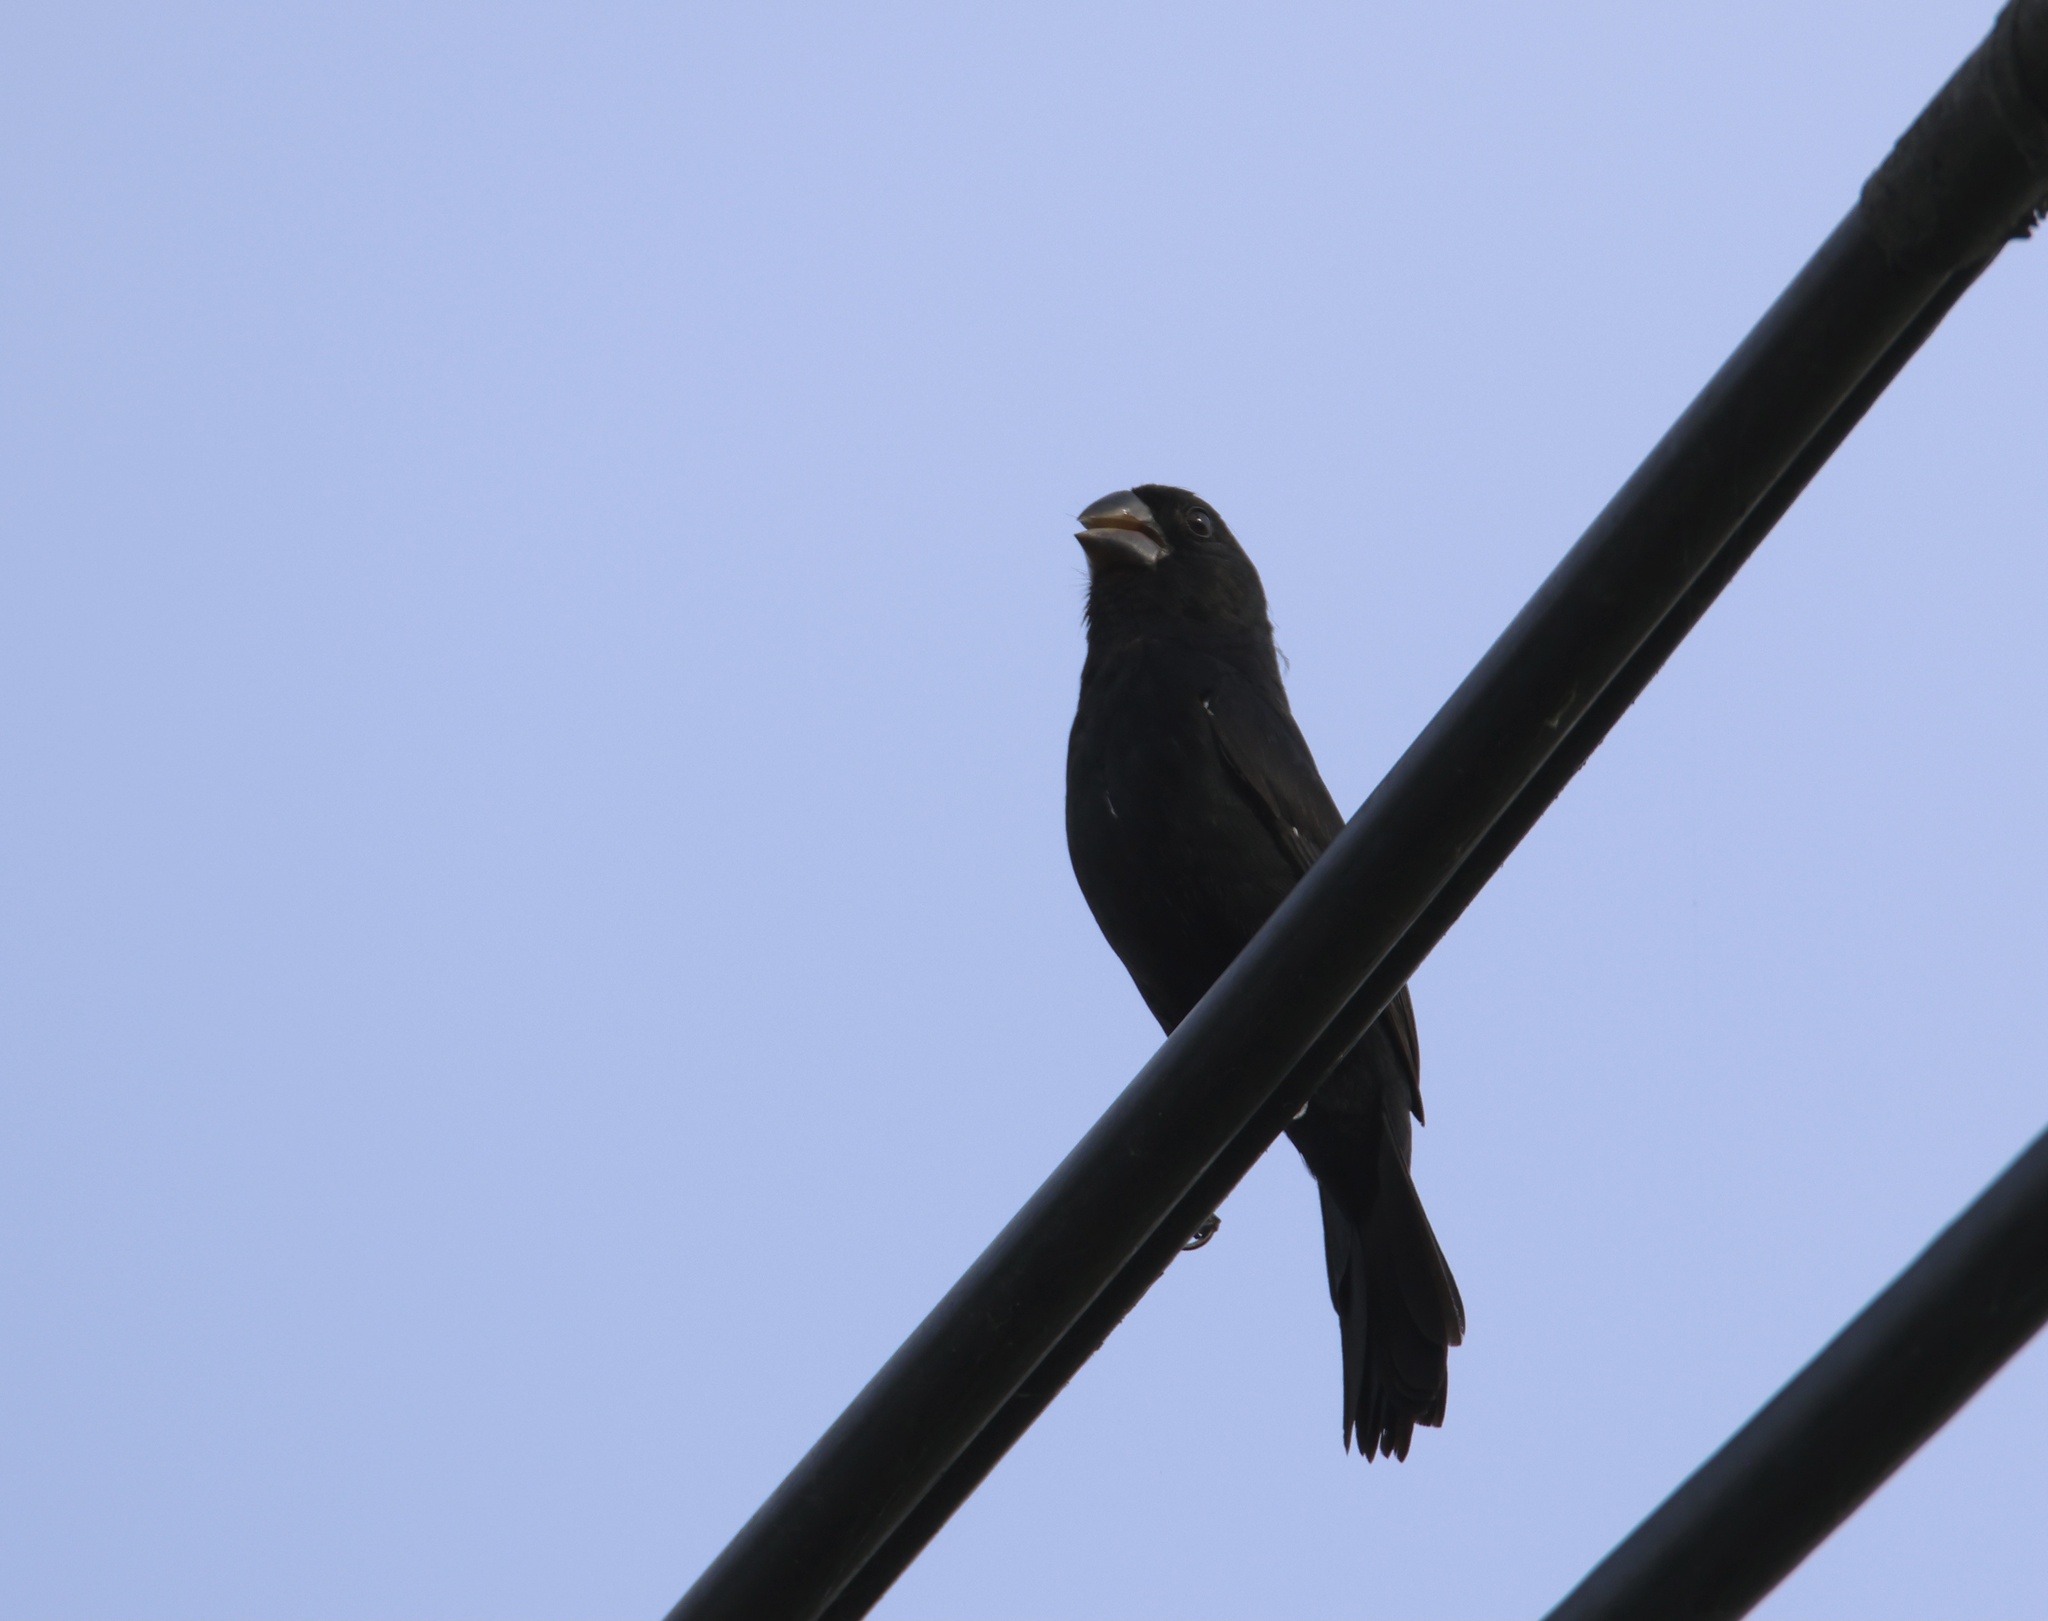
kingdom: Animalia
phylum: Chordata
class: Aves
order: Passeriformes
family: Thraupidae
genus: Sporophila
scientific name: Sporophila funerea
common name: Thick-billed seed-finch
